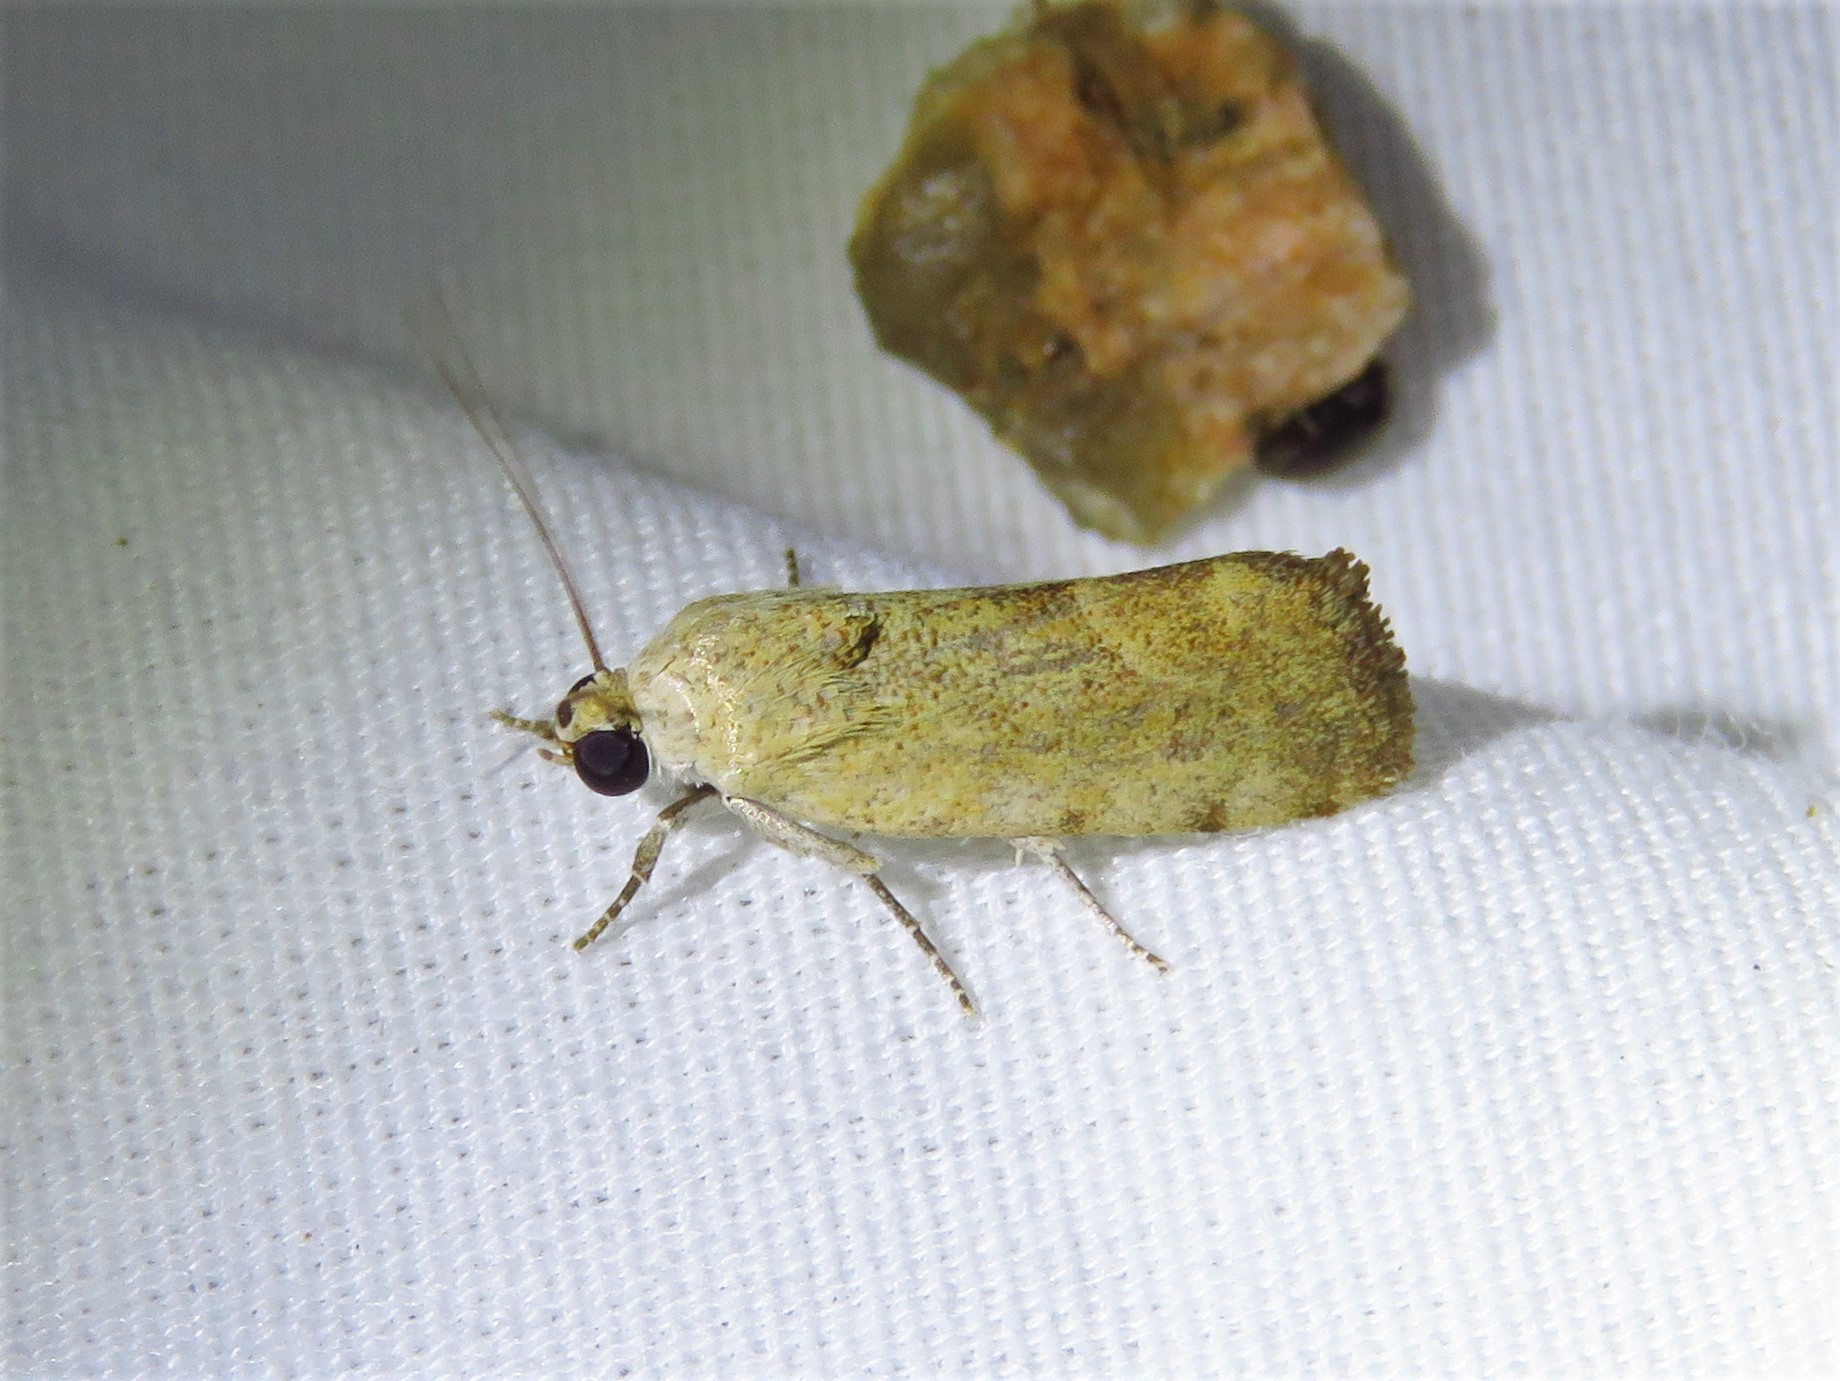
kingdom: Animalia
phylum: Arthropoda
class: Insecta
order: Lepidoptera
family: Noctuidae
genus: Acontia
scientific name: Acontia fasciatella
